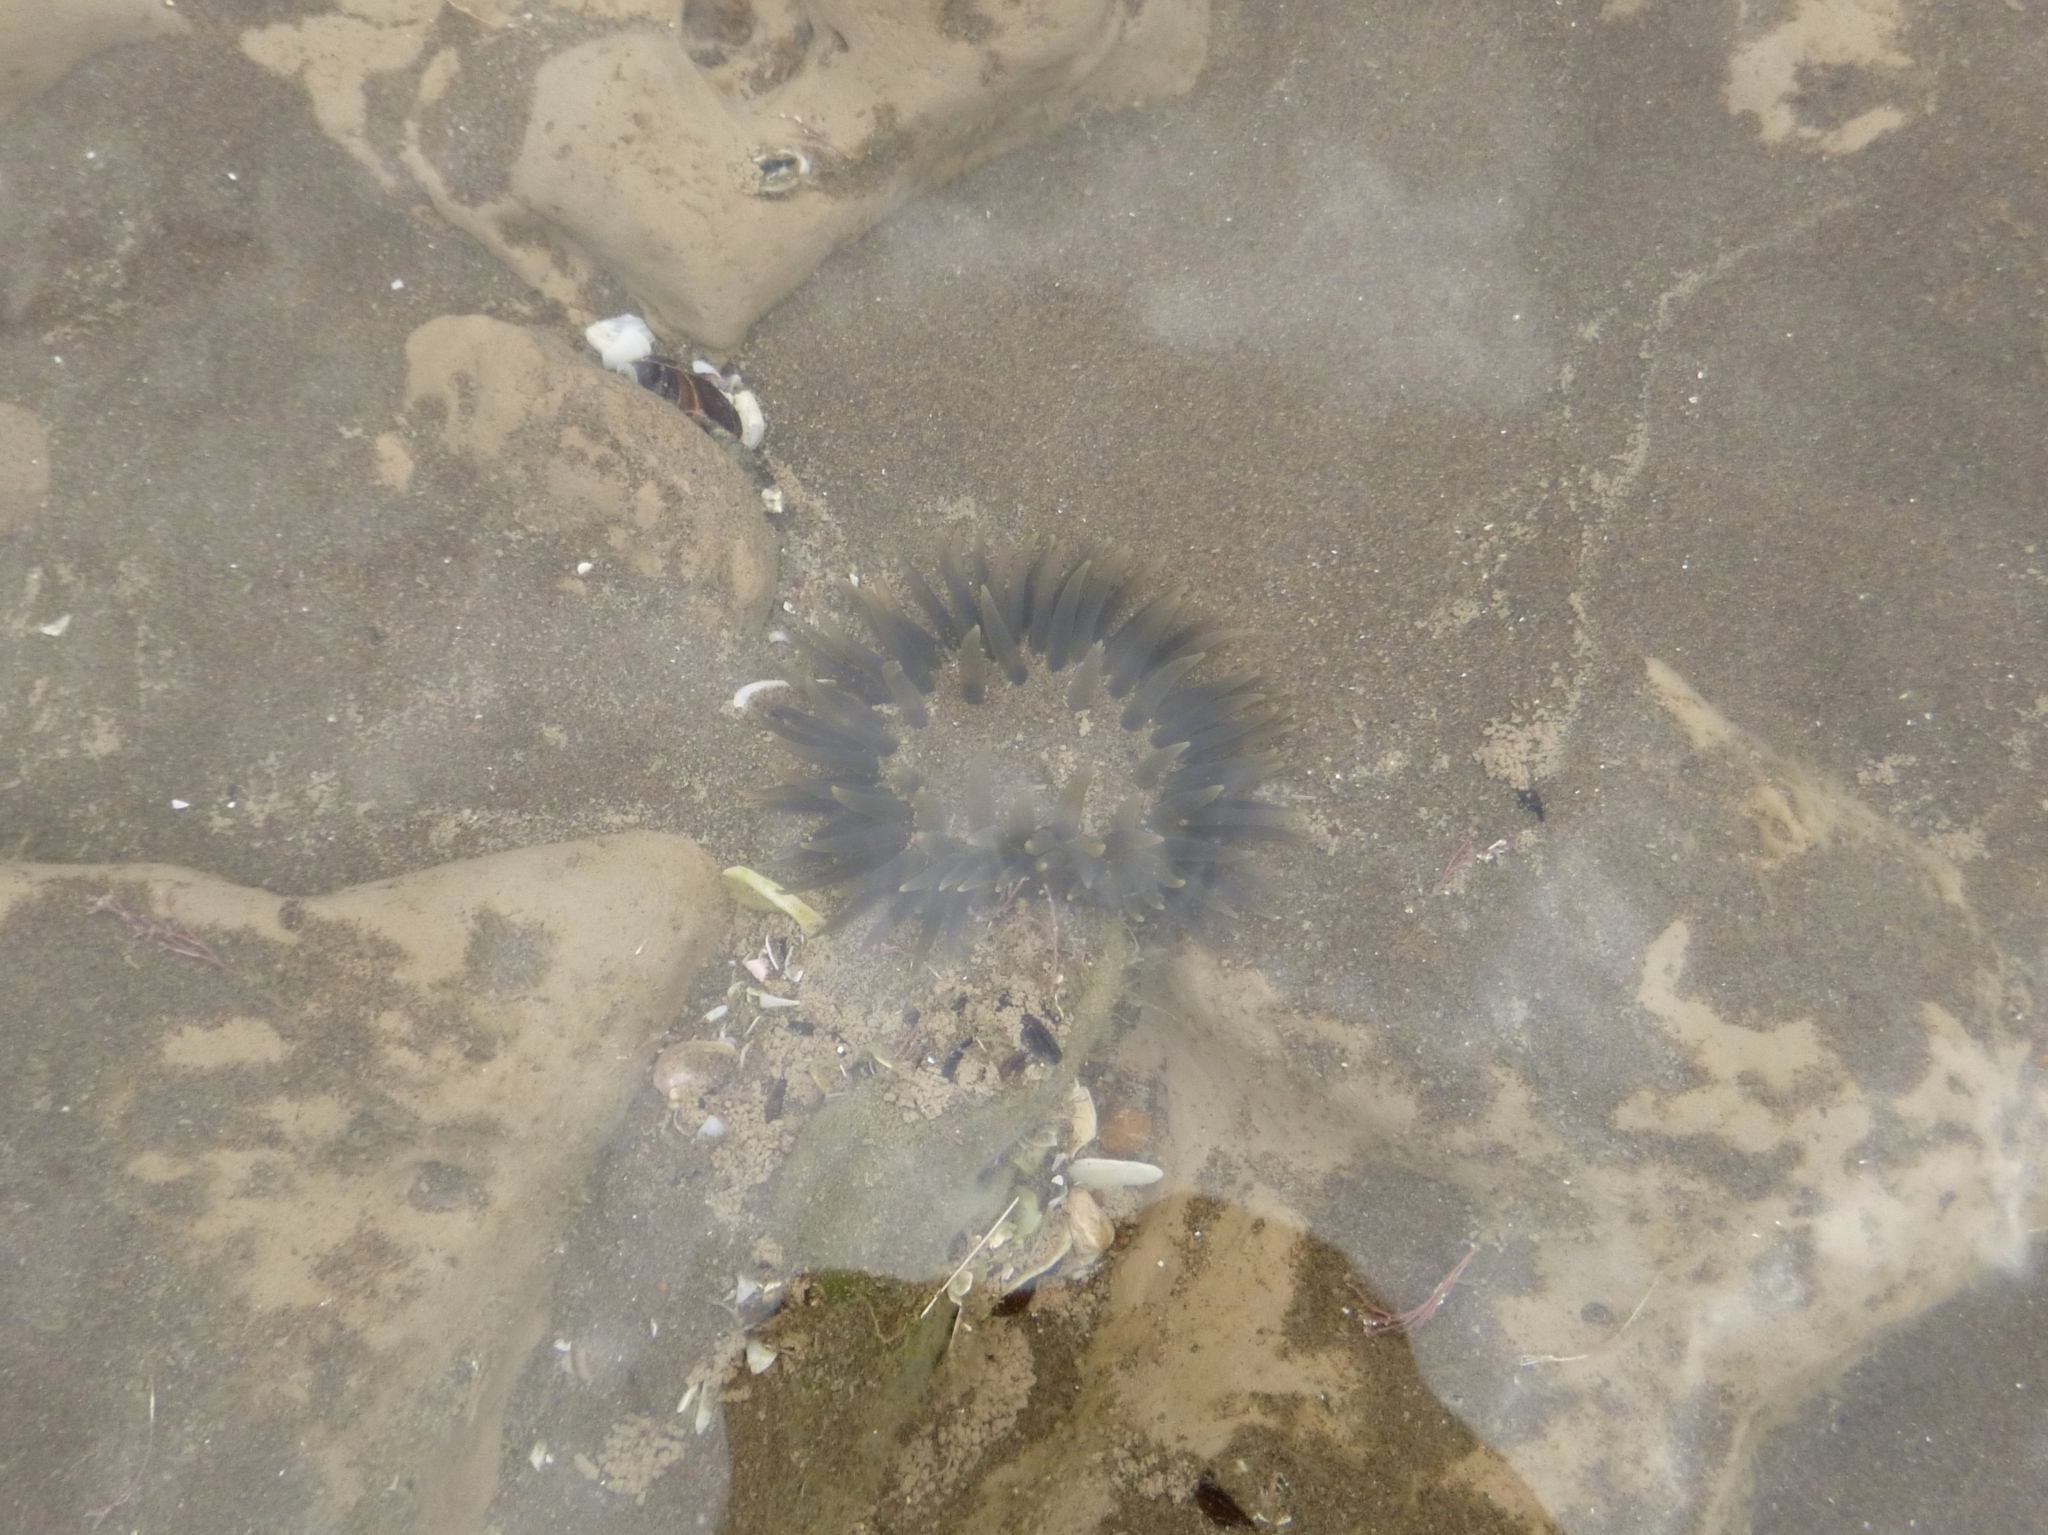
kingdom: Animalia
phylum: Cnidaria
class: Anthozoa
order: Actiniaria
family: Actiniidae
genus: Bunodosoma
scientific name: Bunodosoma zamponii
